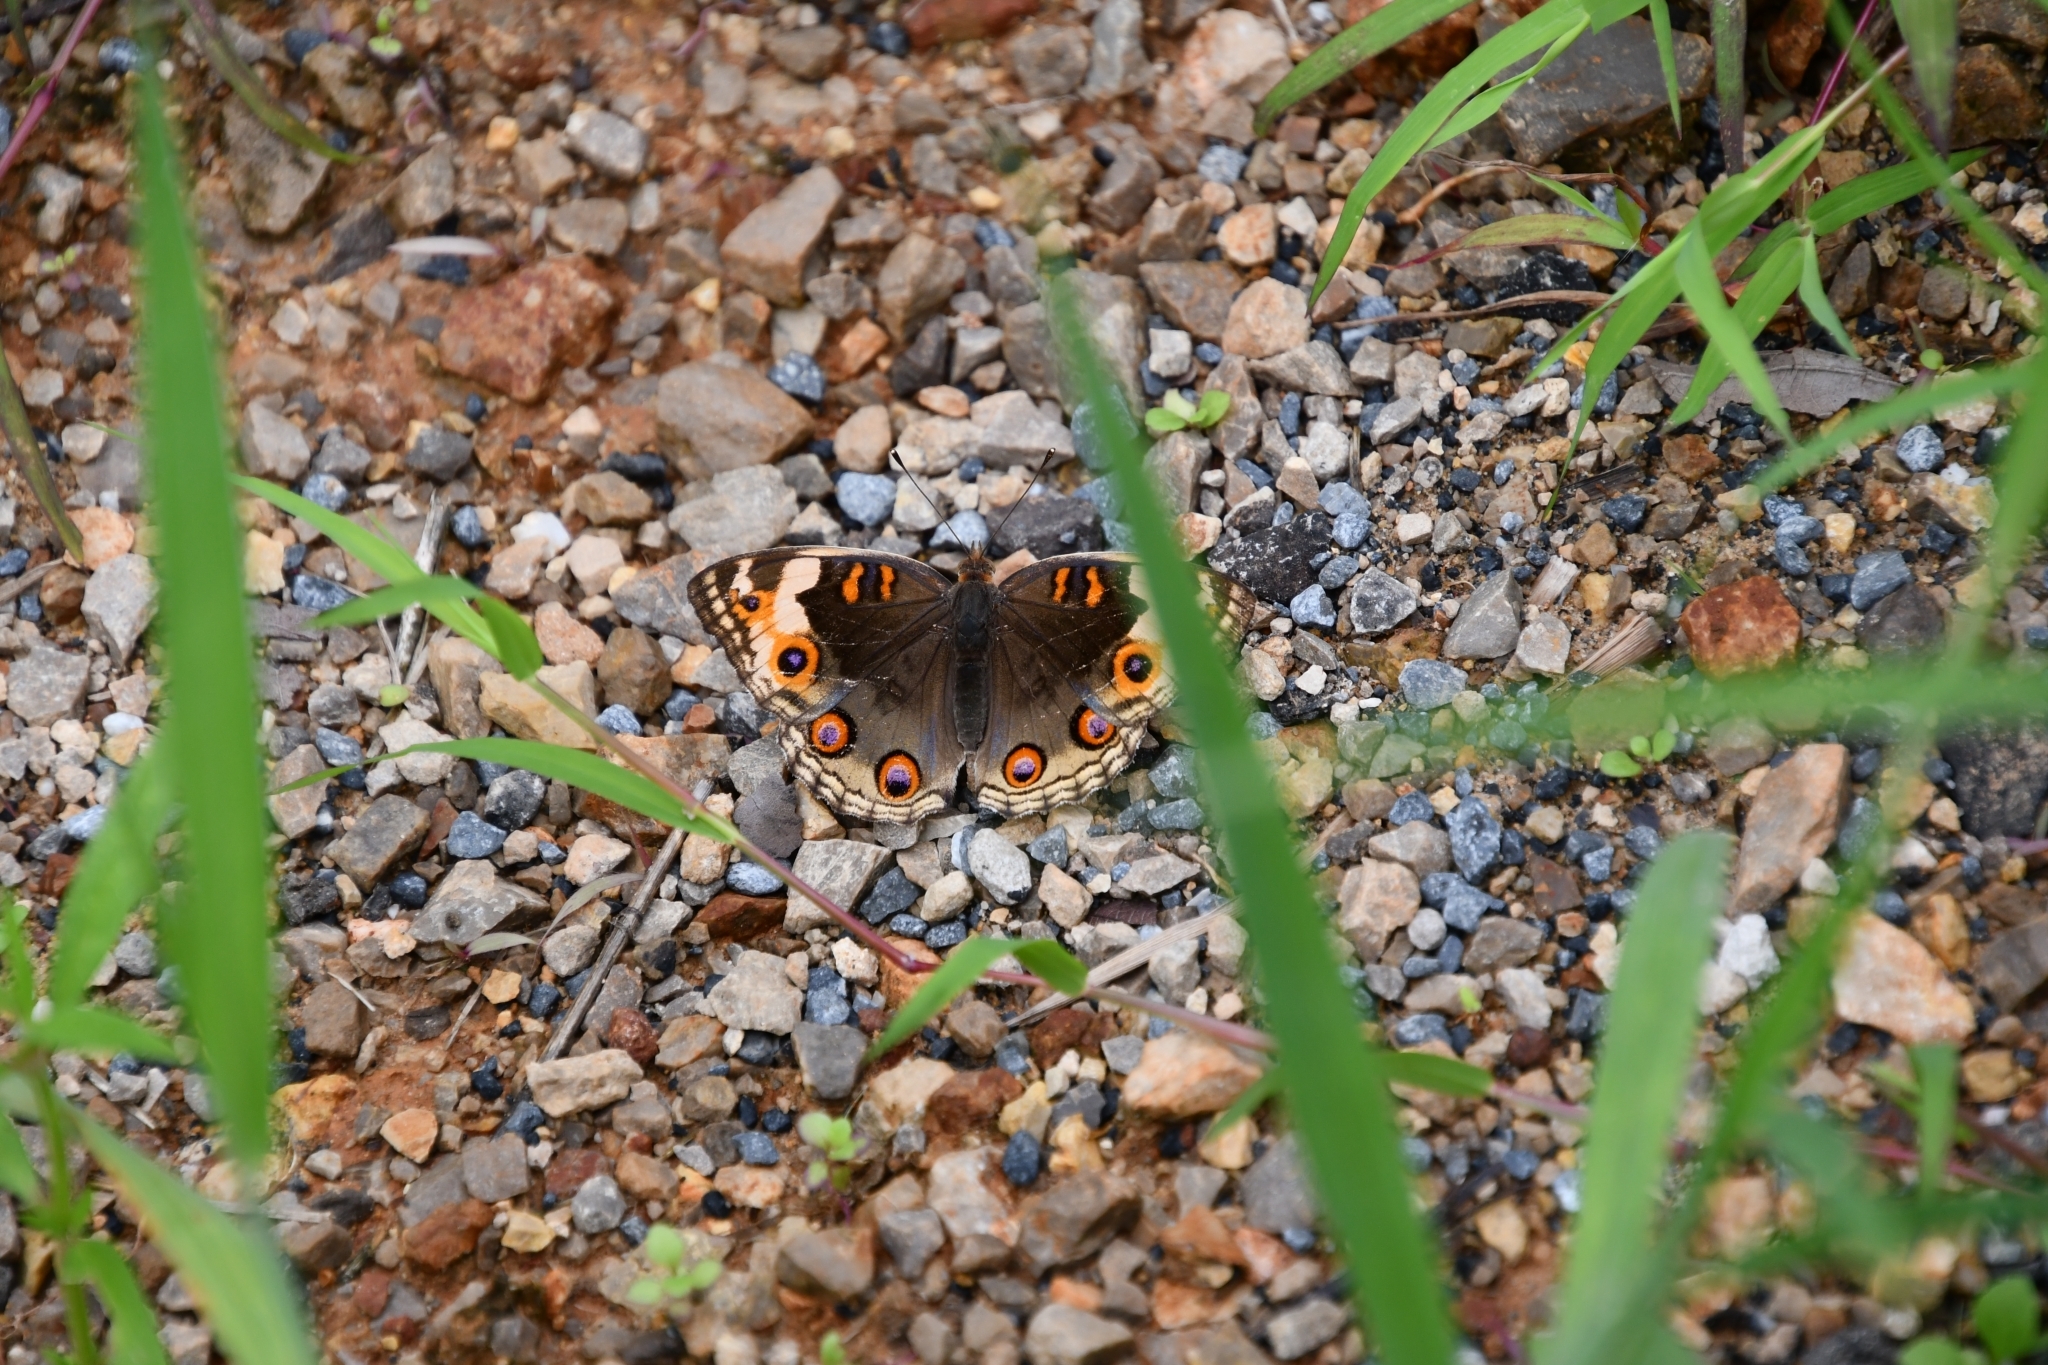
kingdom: Animalia
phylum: Arthropoda
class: Insecta
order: Lepidoptera
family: Nymphalidae
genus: Junonia
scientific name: Junonia orithya
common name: Blue pansy
